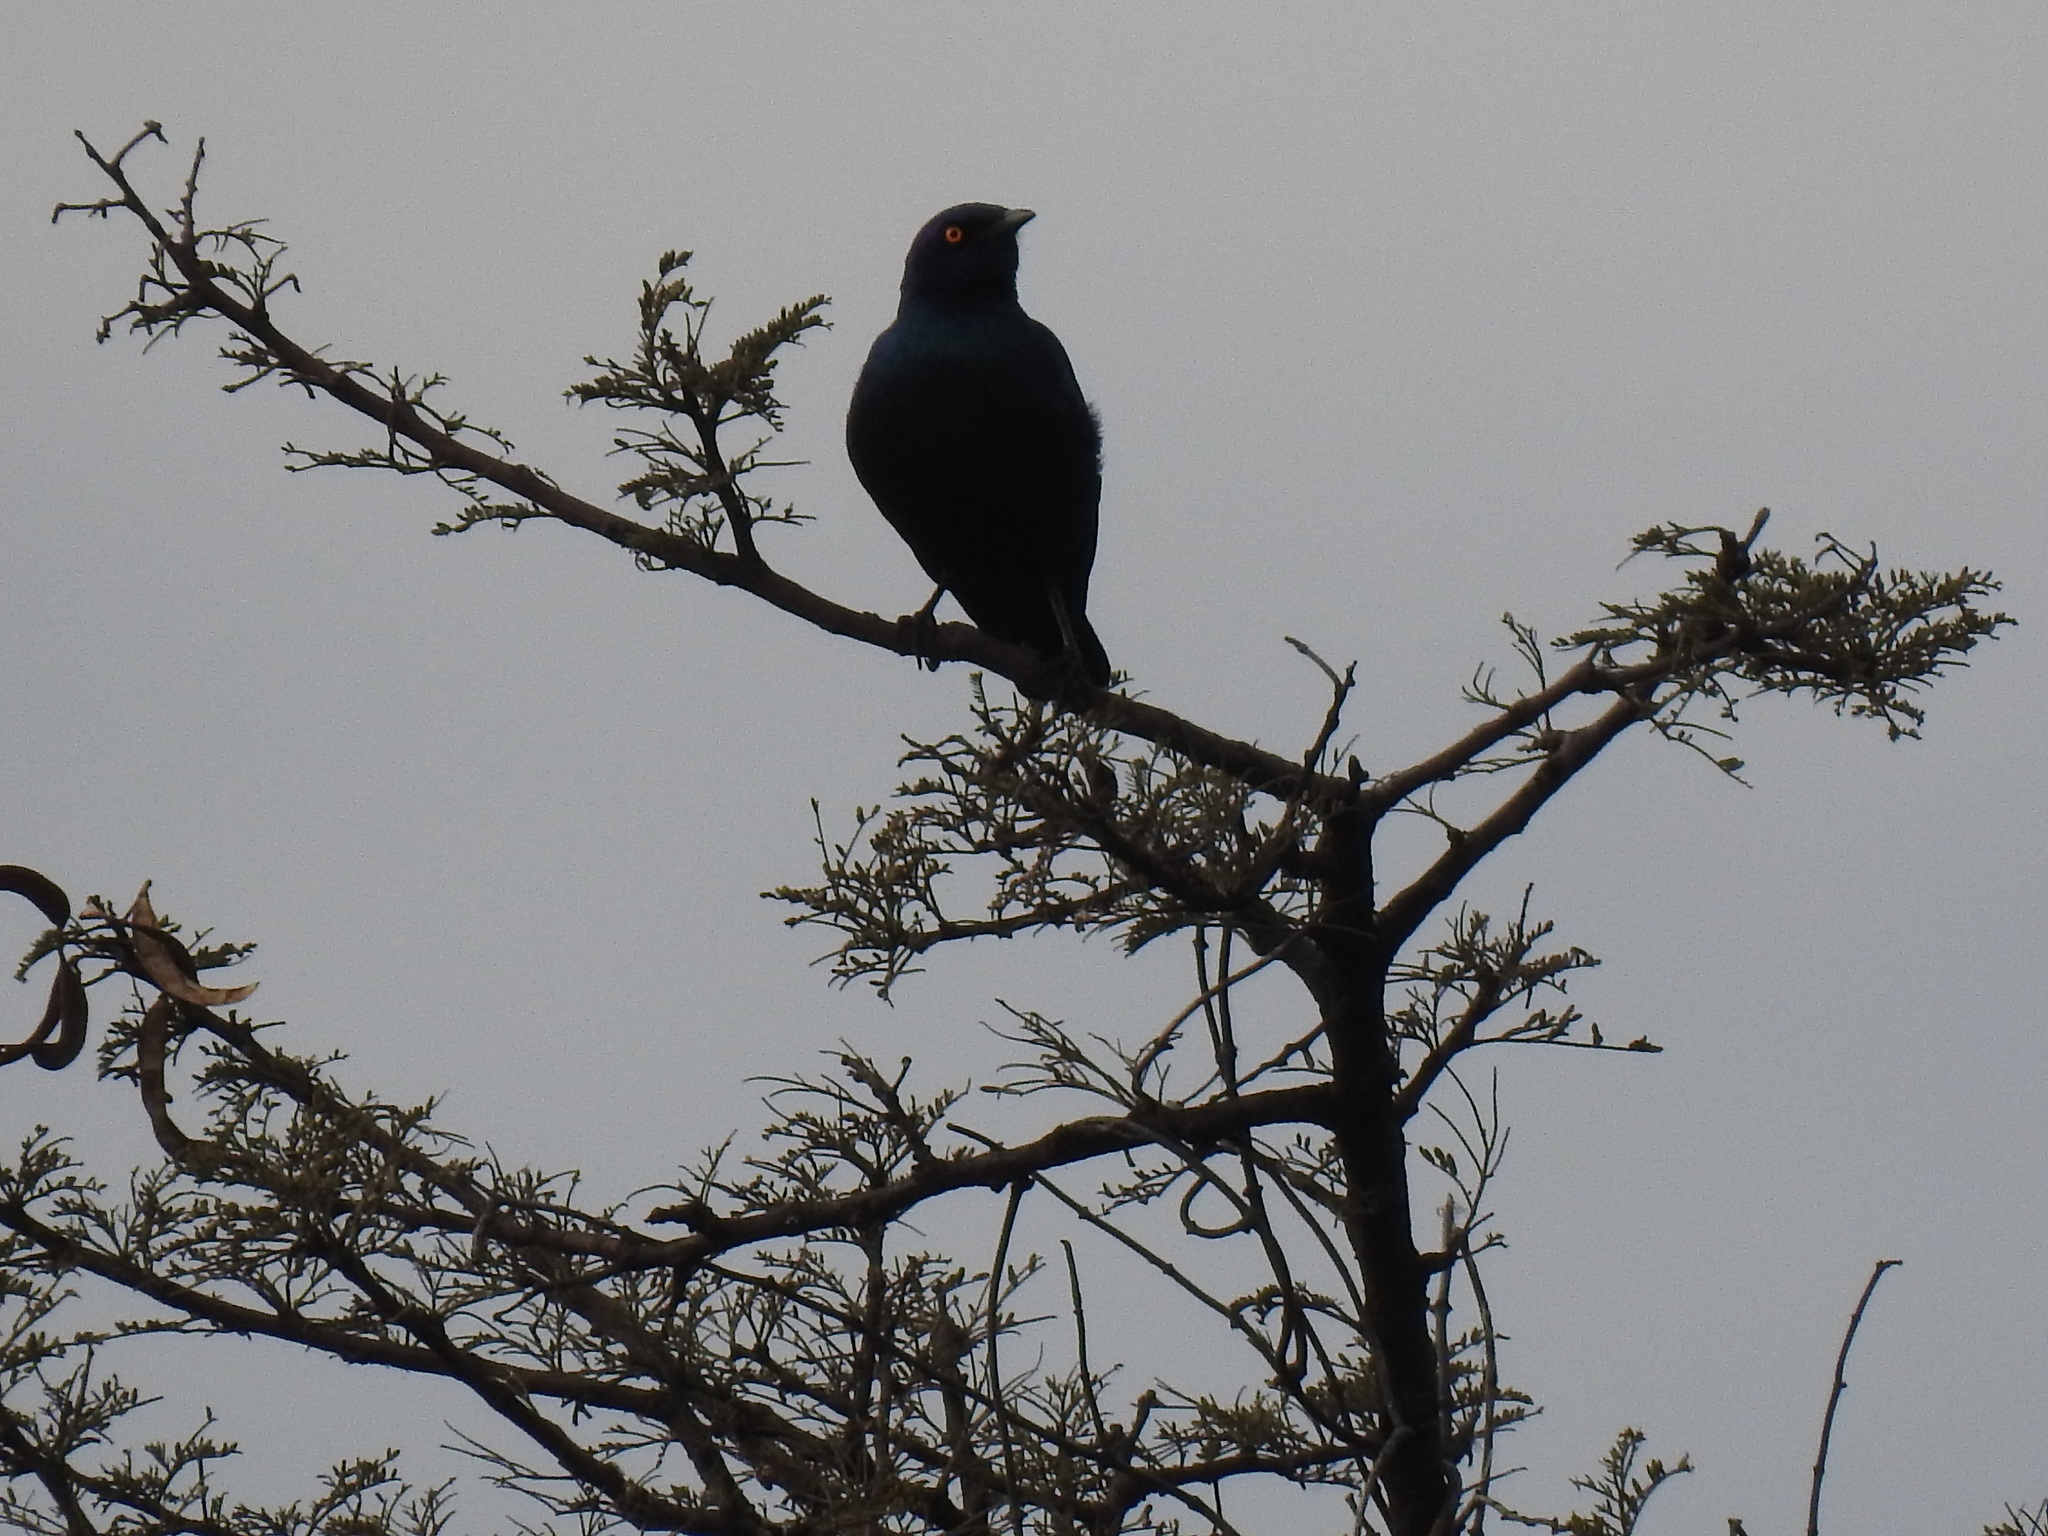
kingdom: Animalia
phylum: Chordata
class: Aves
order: Passeriformes
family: Sturnidae
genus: Lamprotornis
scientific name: Lamprotornis nitens
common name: Cape starling
